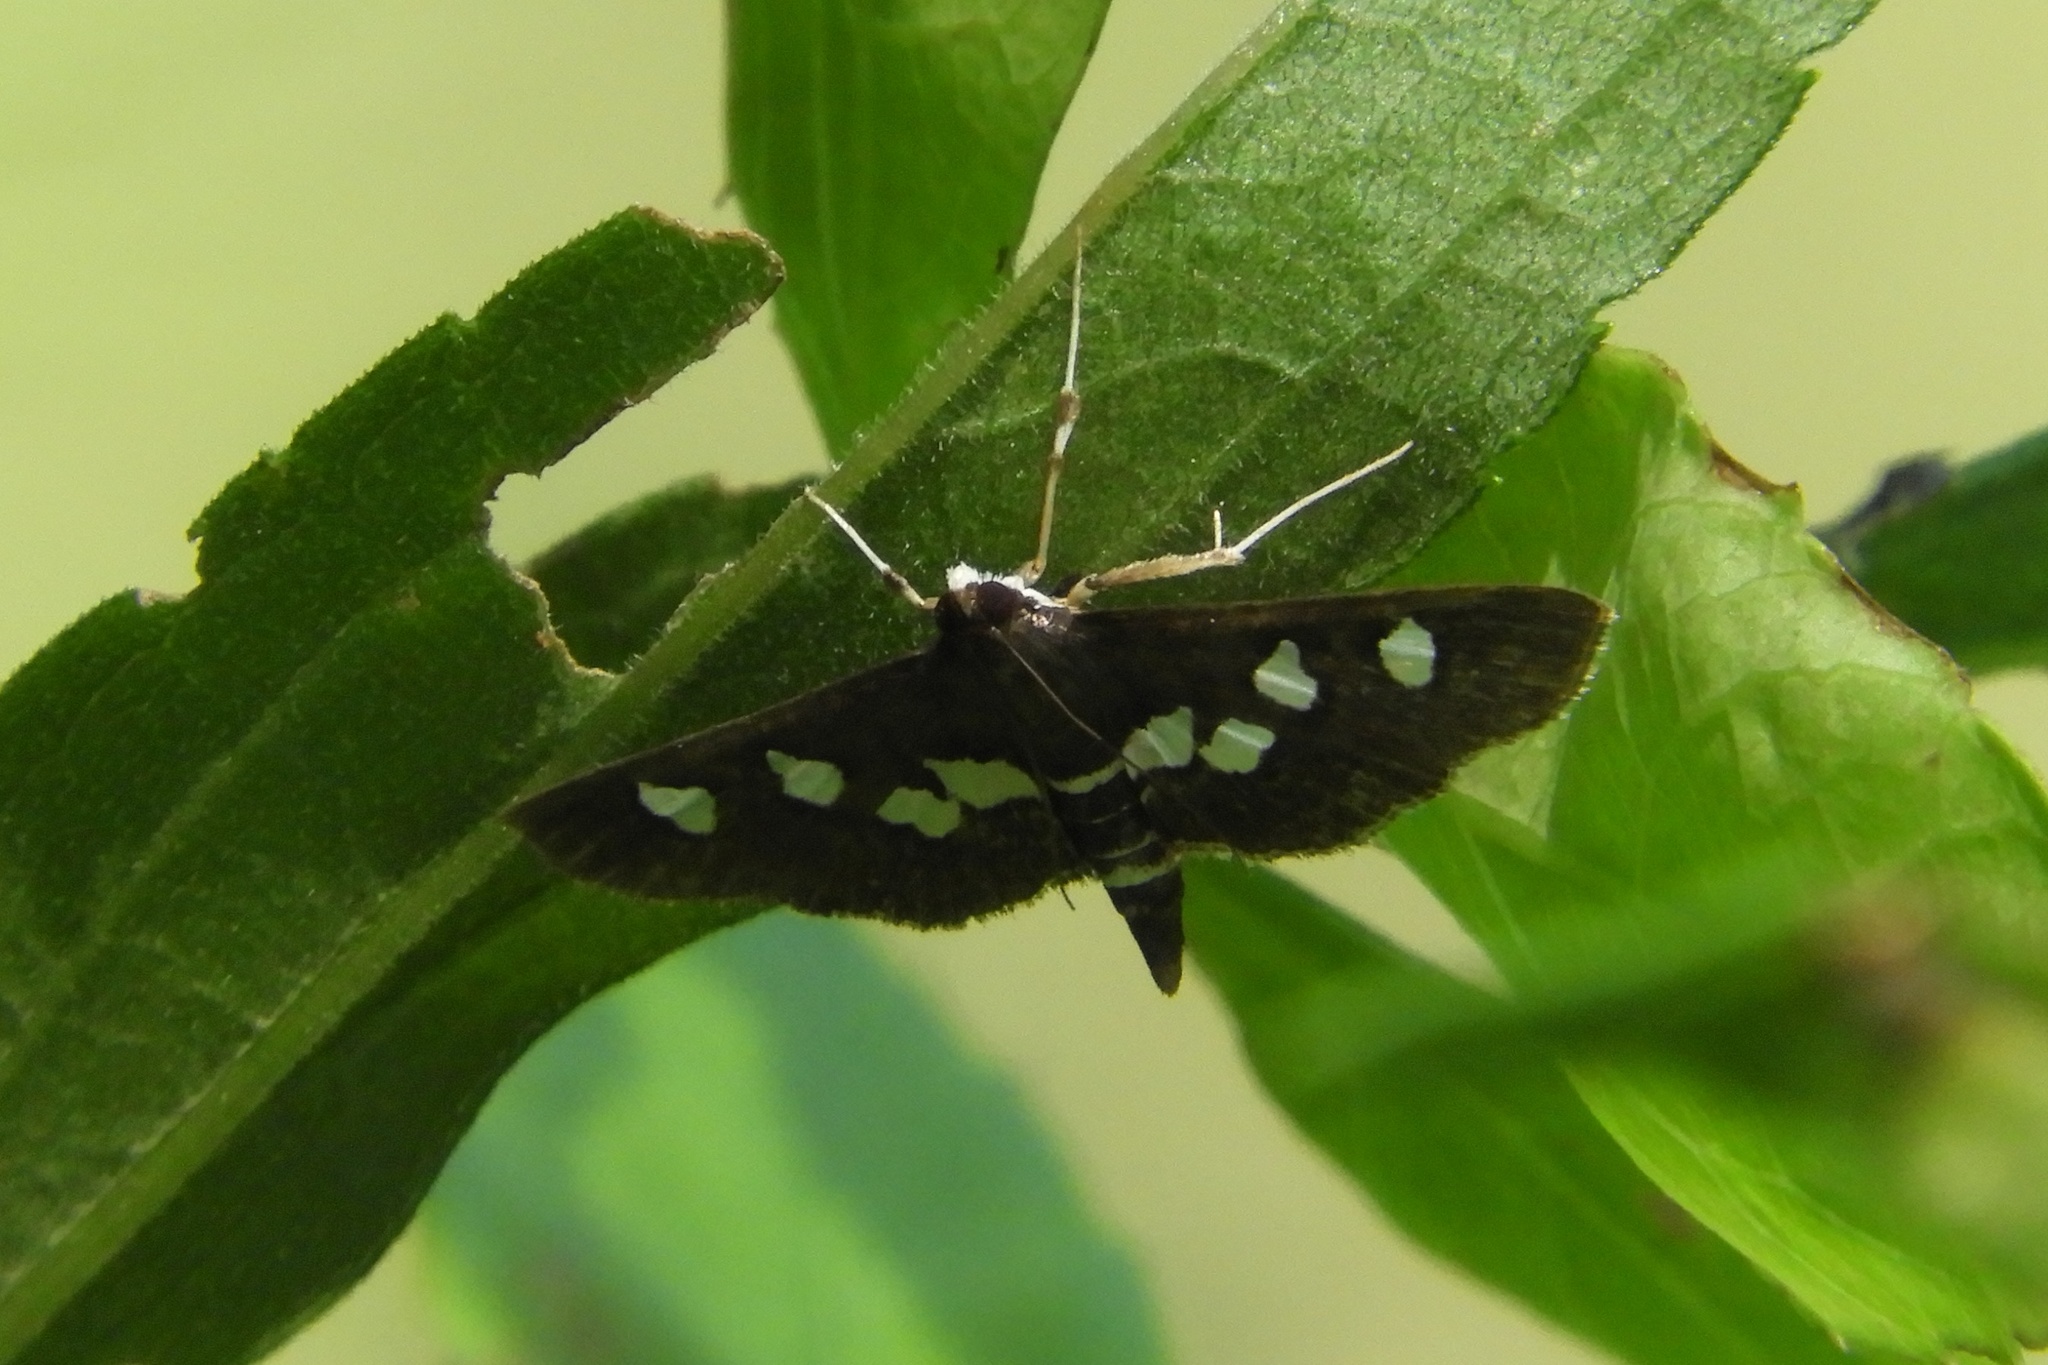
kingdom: Animalia
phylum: Arthropoda
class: Insecta
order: Lepidoptera
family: Crambidae
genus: Desmia
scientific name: Desmia
